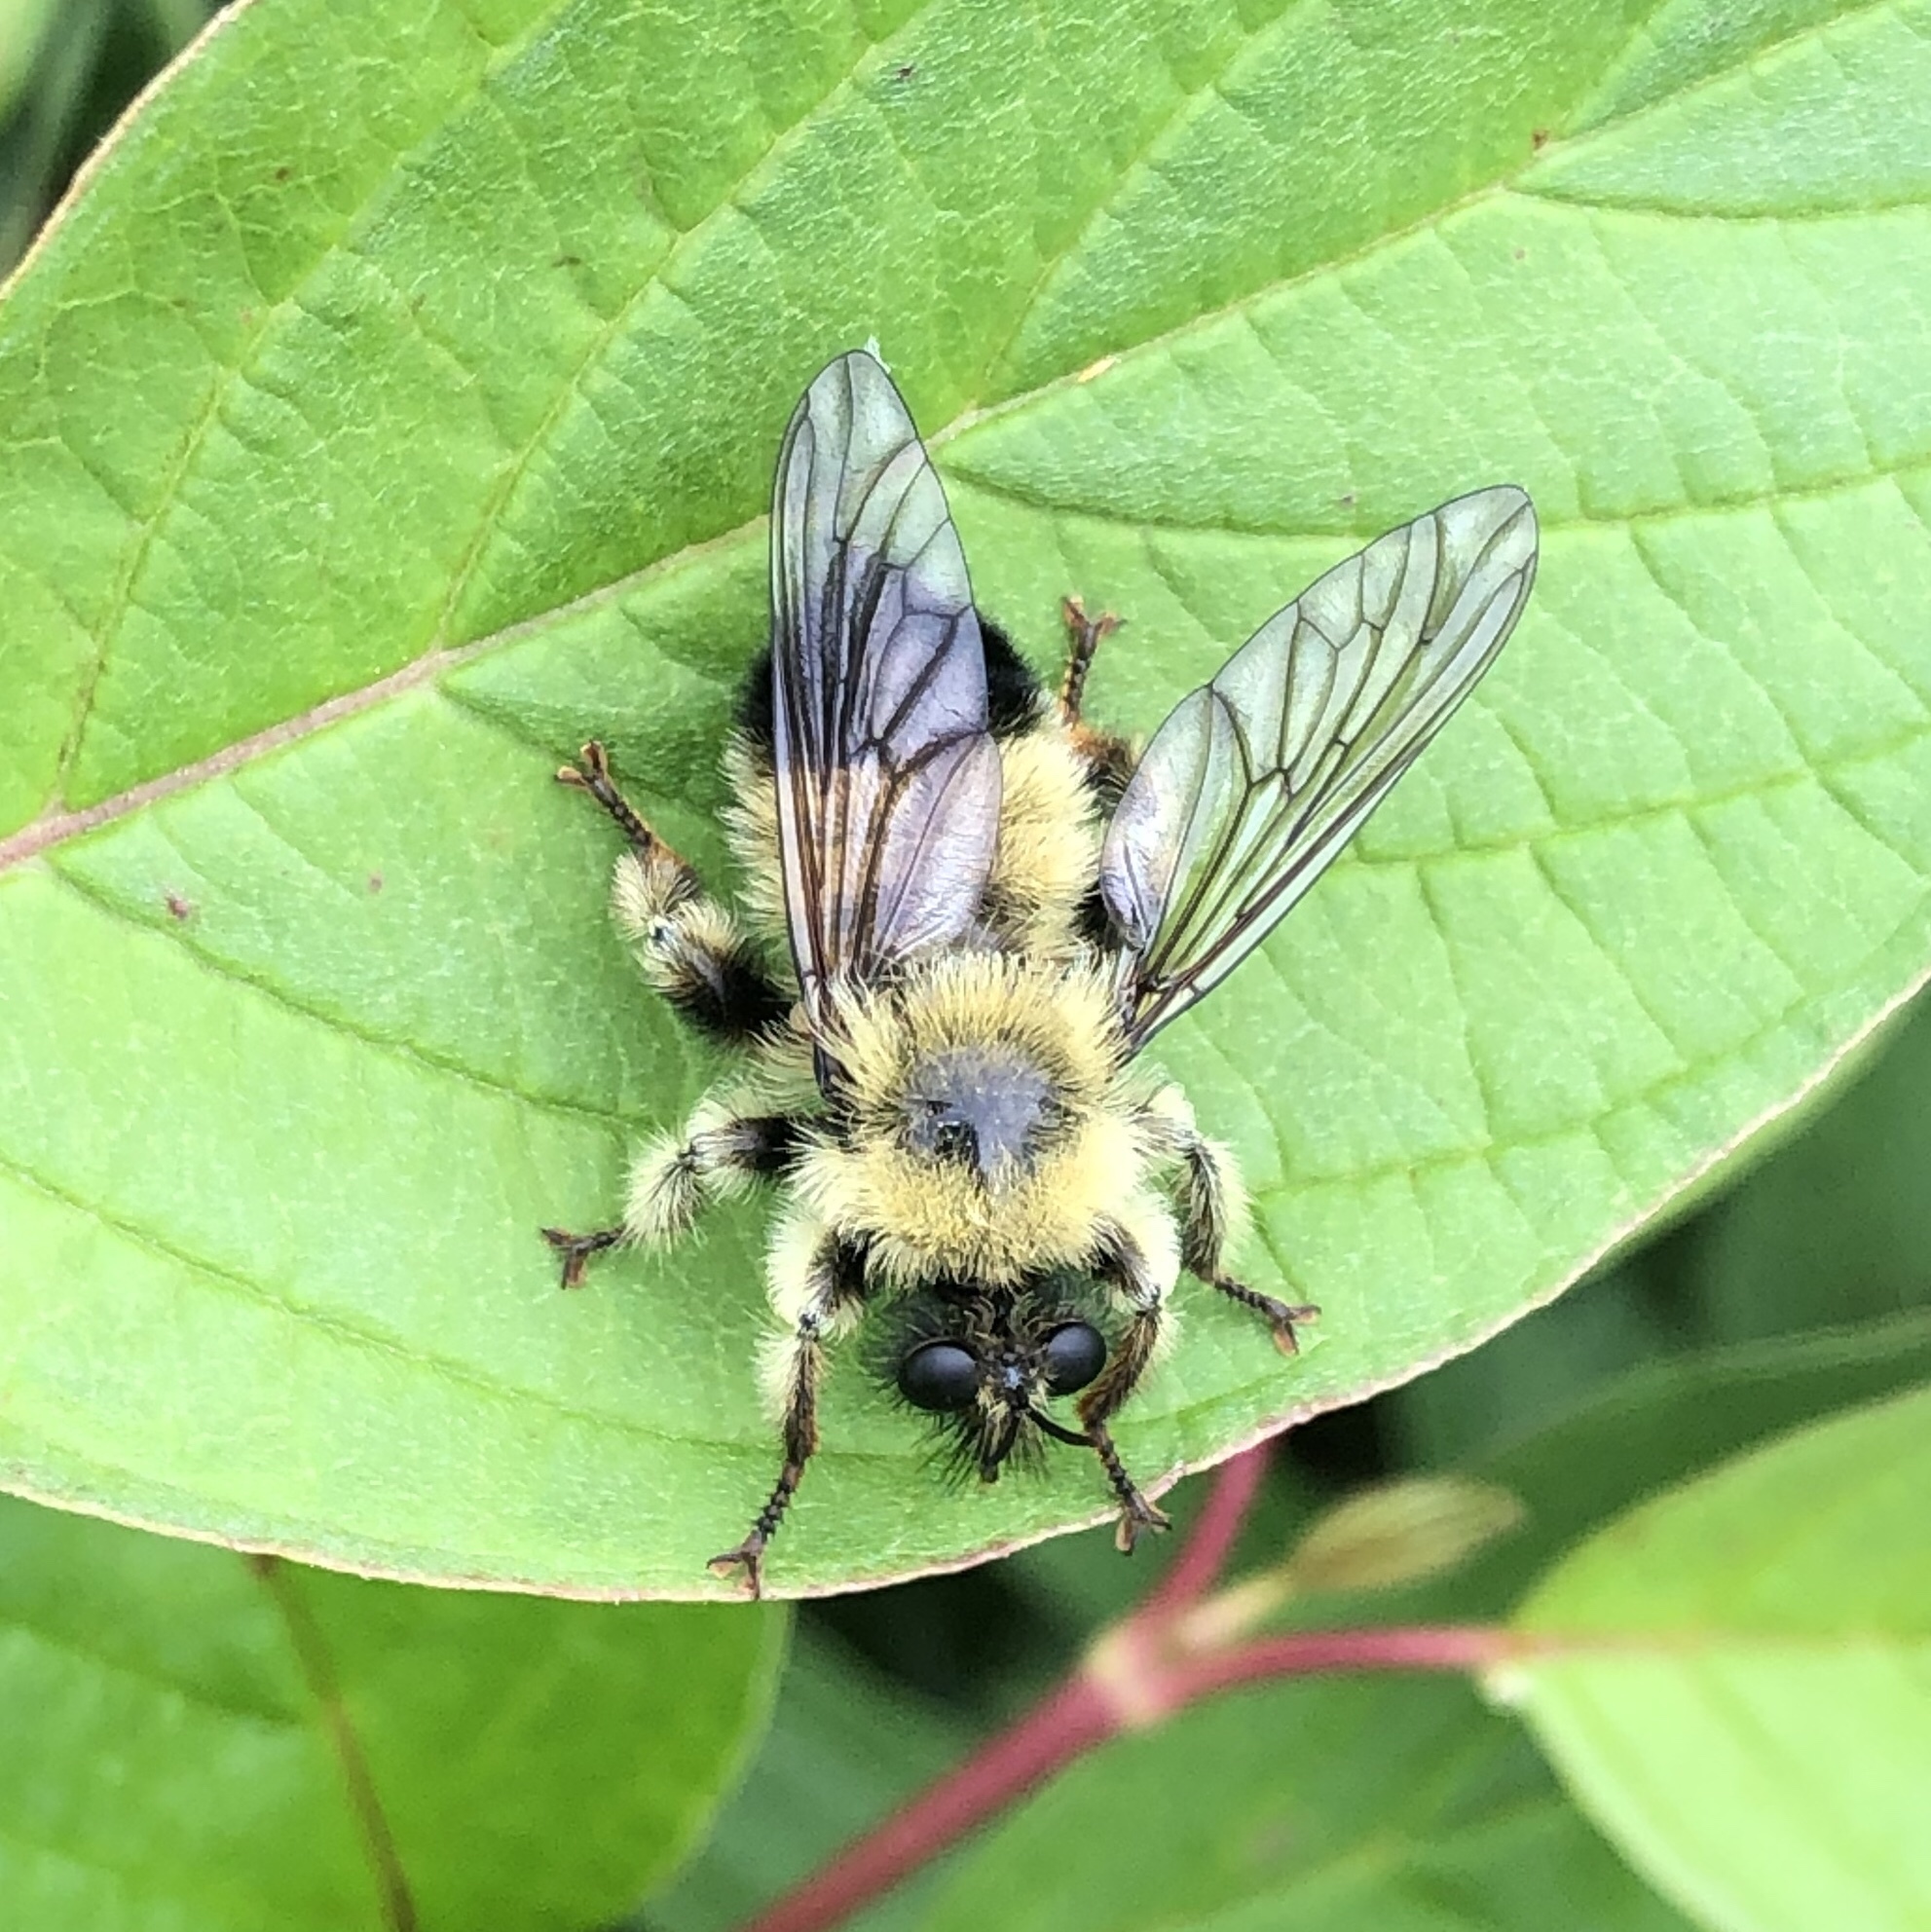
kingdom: Animalia
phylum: Arthropoda
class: Insecta
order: Diptera
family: Asilidae
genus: Laphria
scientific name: Laphria sacrator
